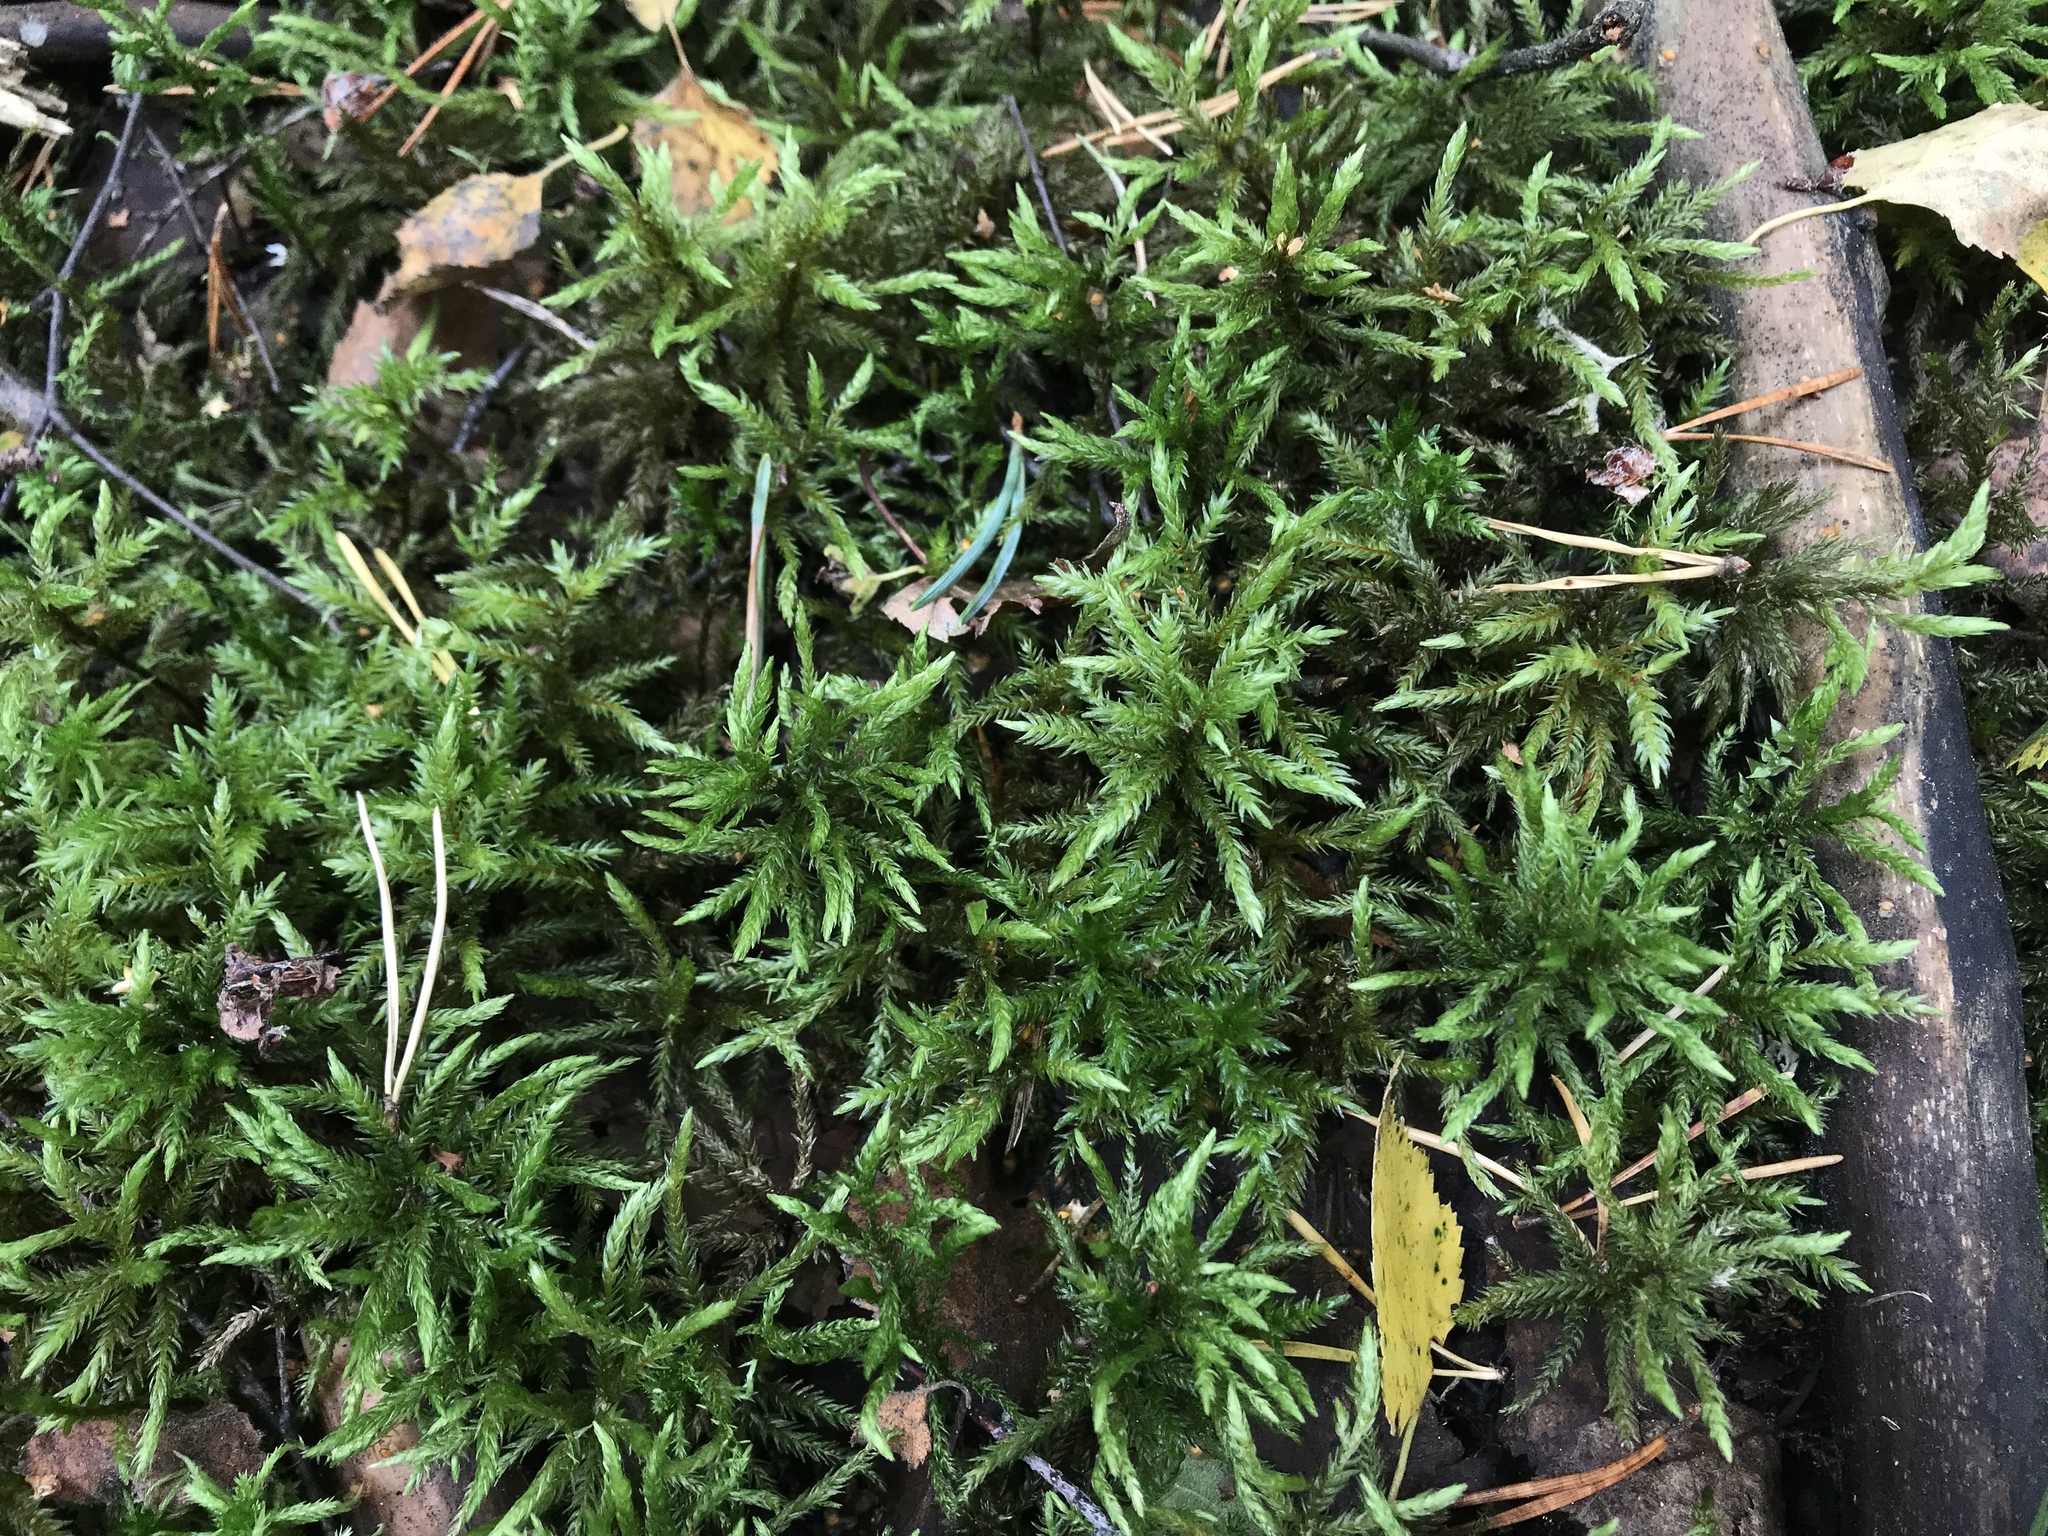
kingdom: Plantae
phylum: Bryophyta
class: Bryopsida
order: Hypnales
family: Climaciaceae
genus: Climacium
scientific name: Climacium dendroides
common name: Northern tree moss
